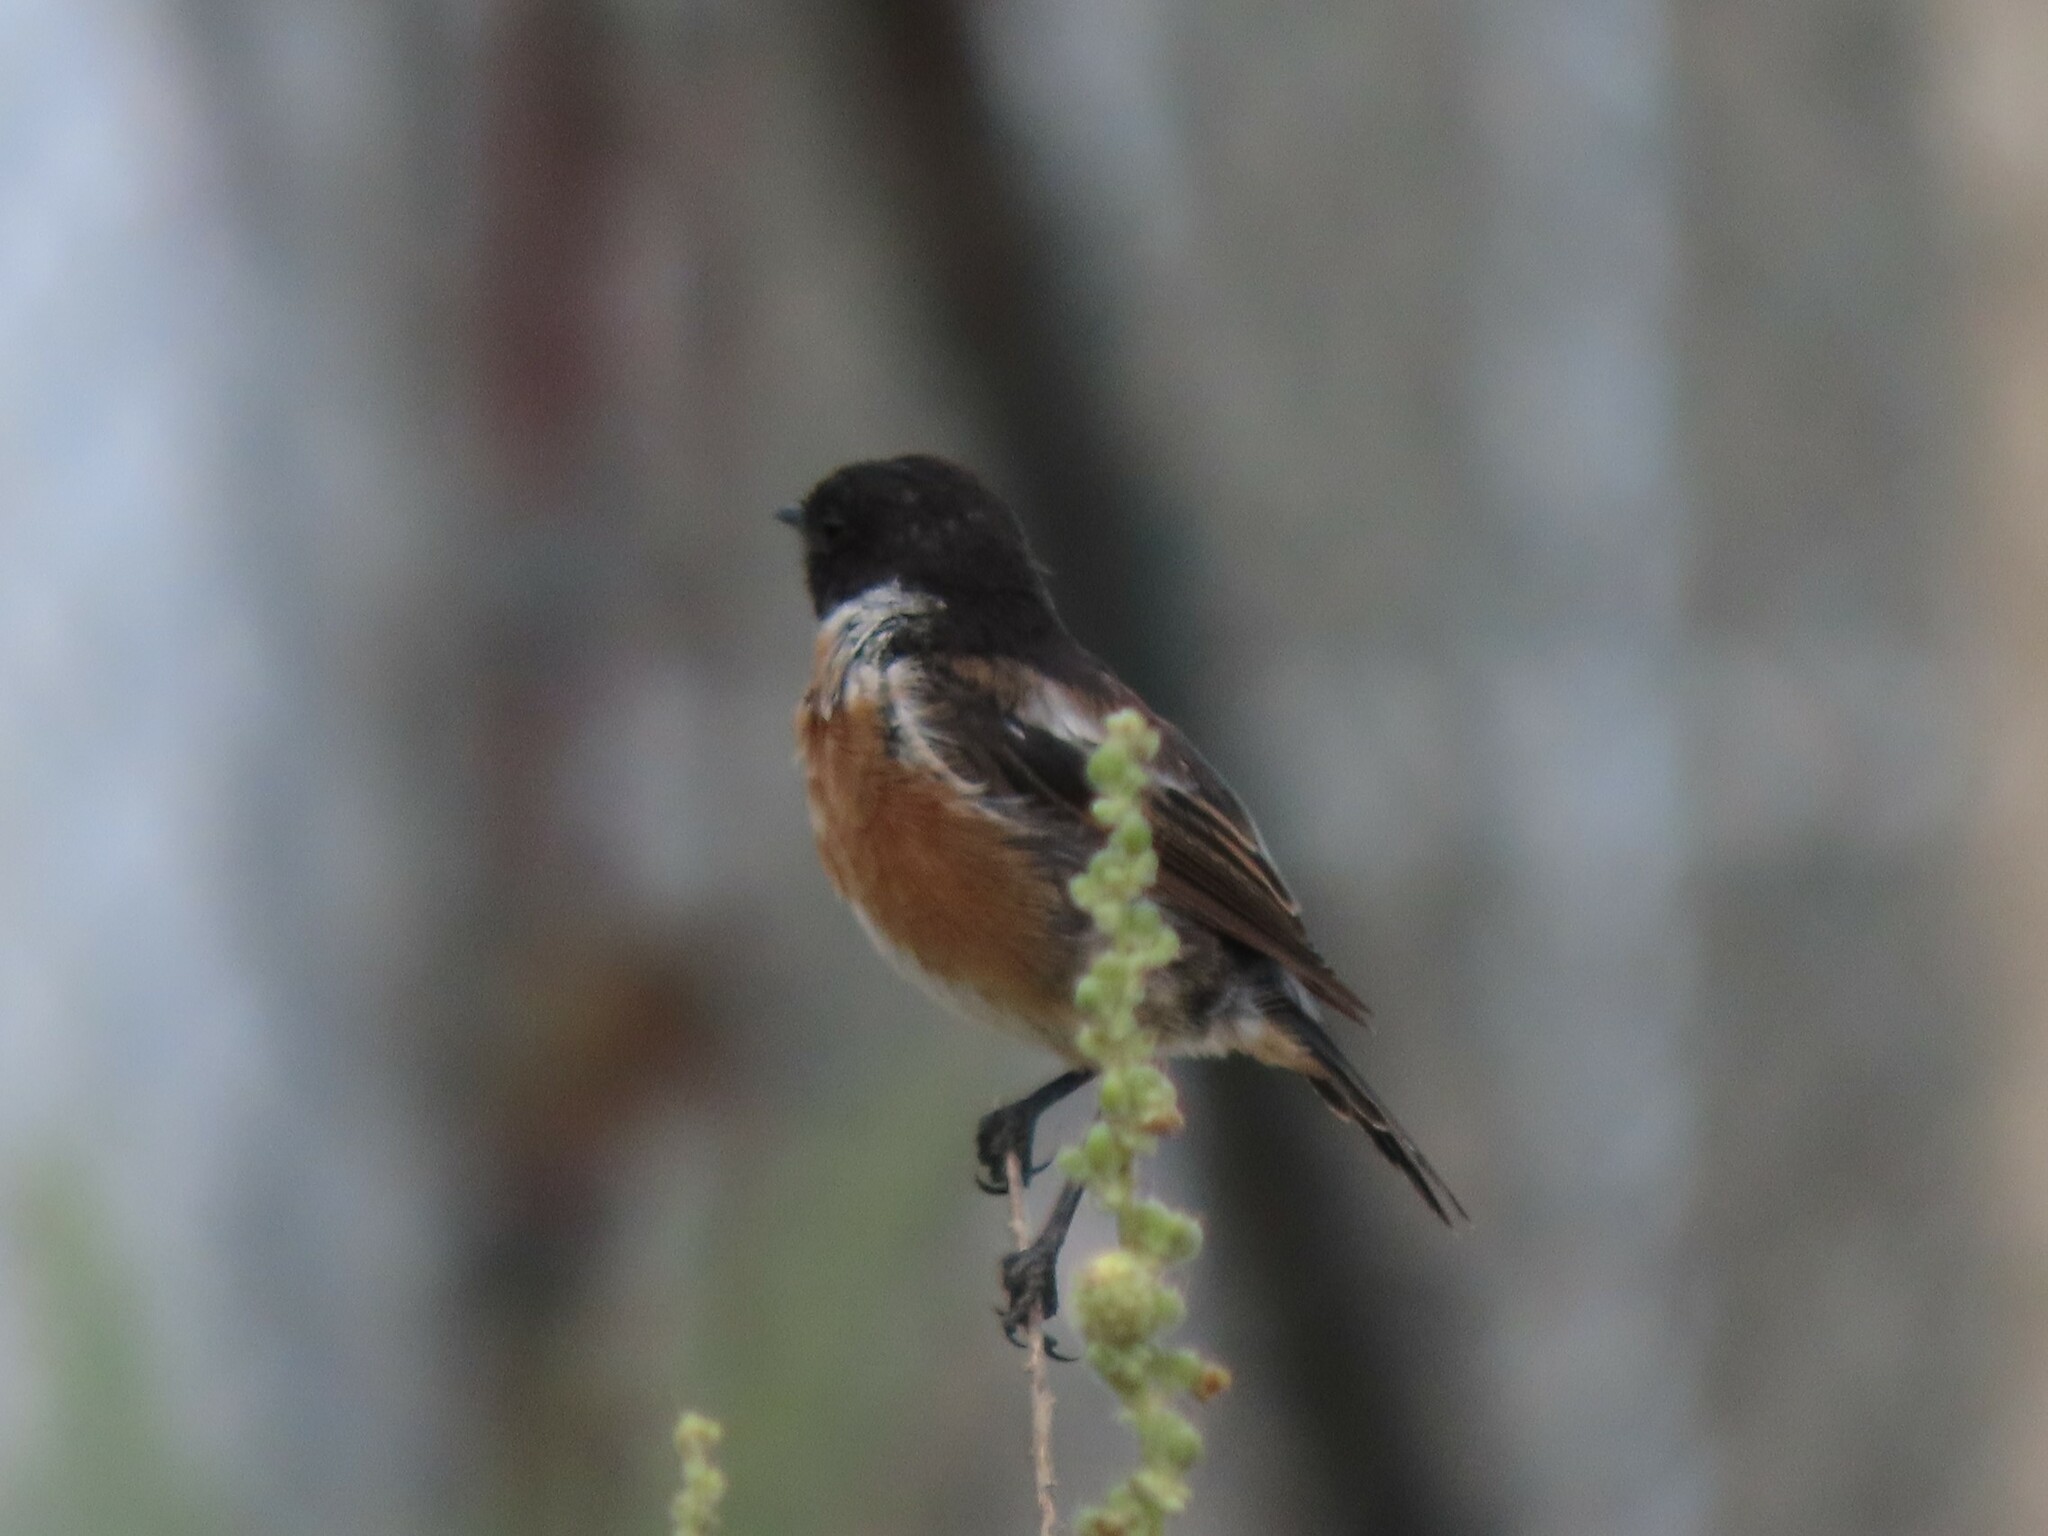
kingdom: Animalia
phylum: Chordata
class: Aves
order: Passeriformes
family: Muscicapidae
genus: Saxicola
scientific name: Saxicola rubicola
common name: European stonechat
